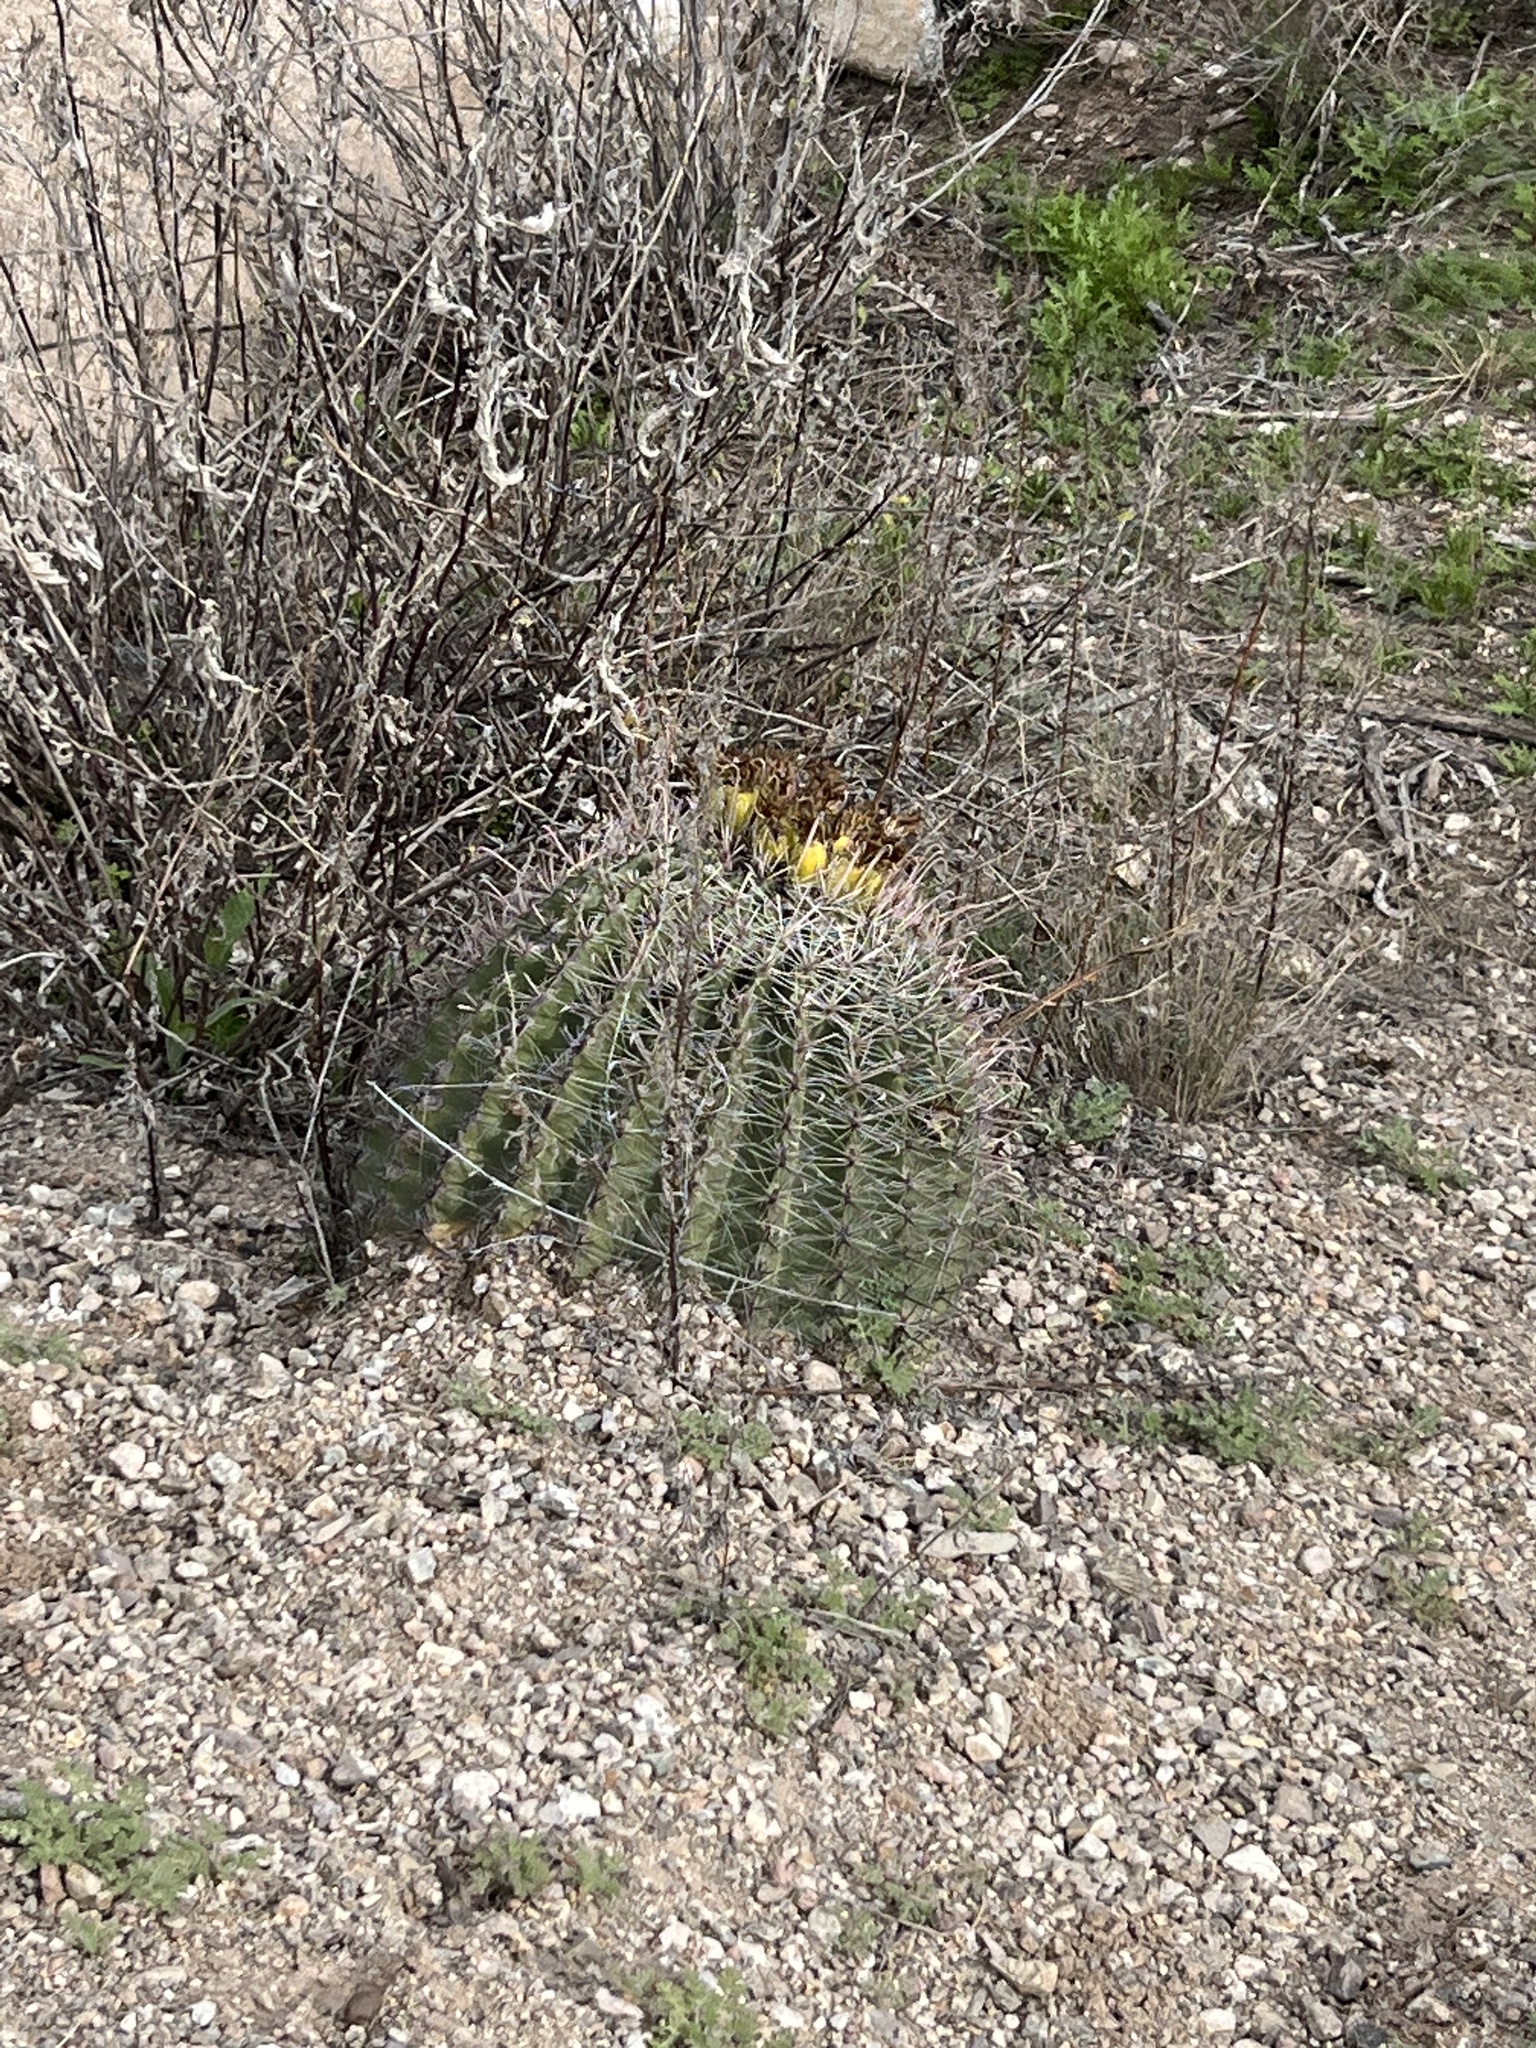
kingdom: Plantae
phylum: Tracheophyta
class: Magnoliopsida
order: Caryophyllales
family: Cactaceae
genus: Ferocactus
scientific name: Ferocactus wislizeni
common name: Candy barrel cactus
